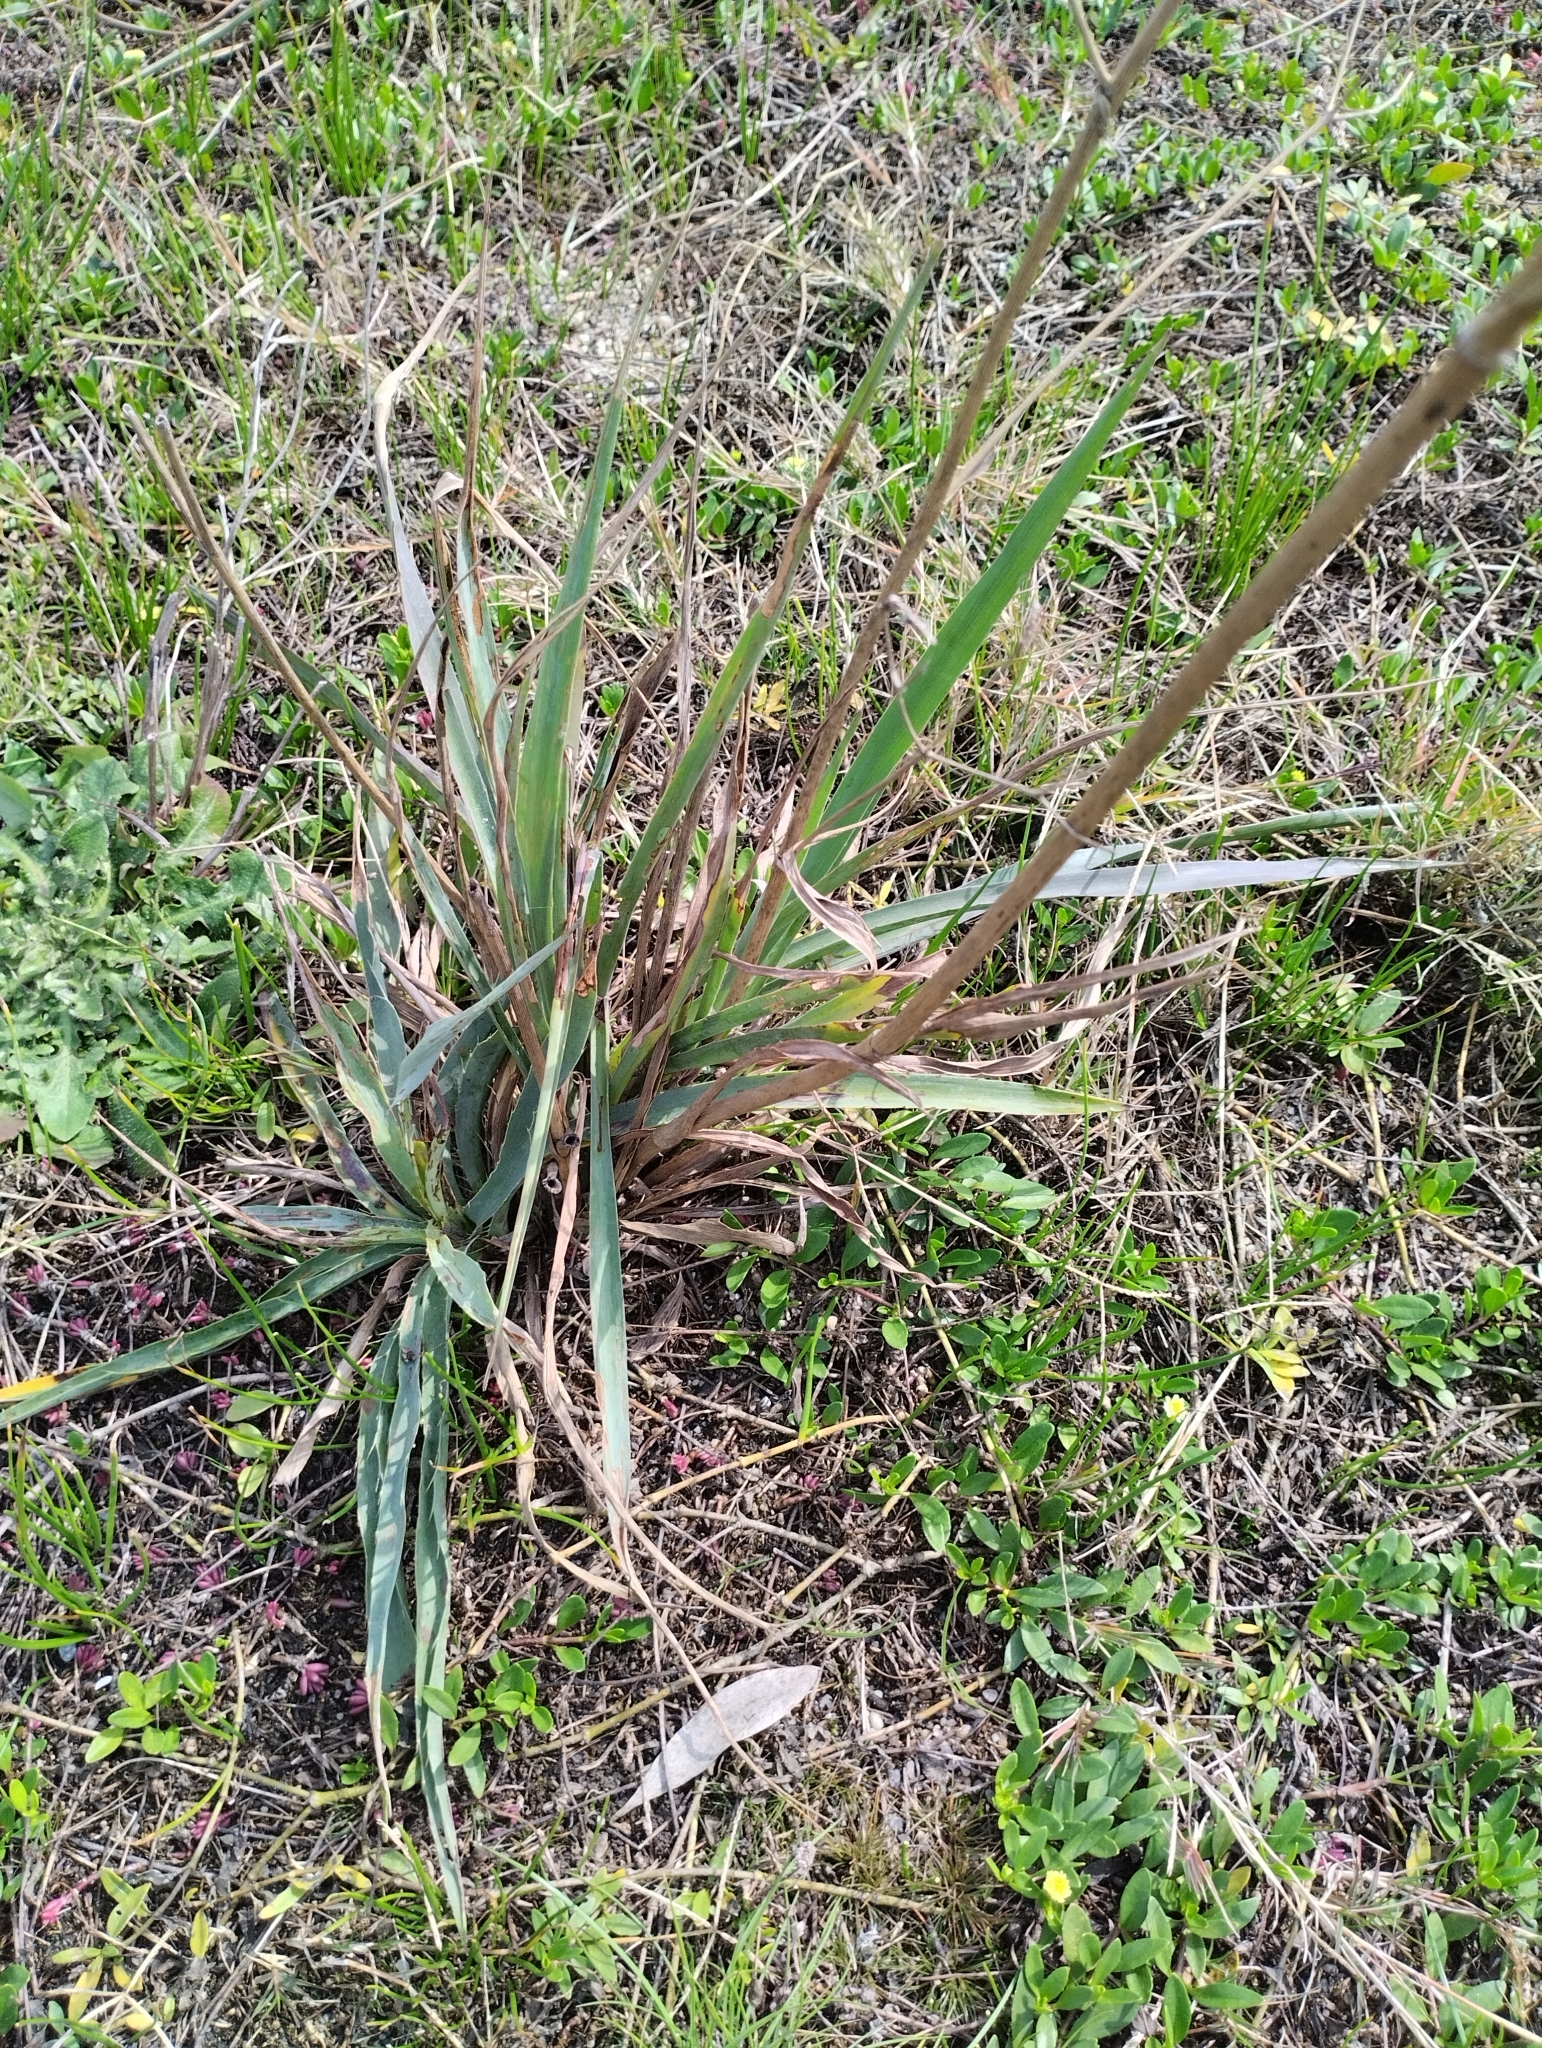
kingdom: Plantae
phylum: Tracheophyta
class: Magnoliopsida
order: Apiales
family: Apiaceae
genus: Eryngium
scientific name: Eryngium ebracteatum
